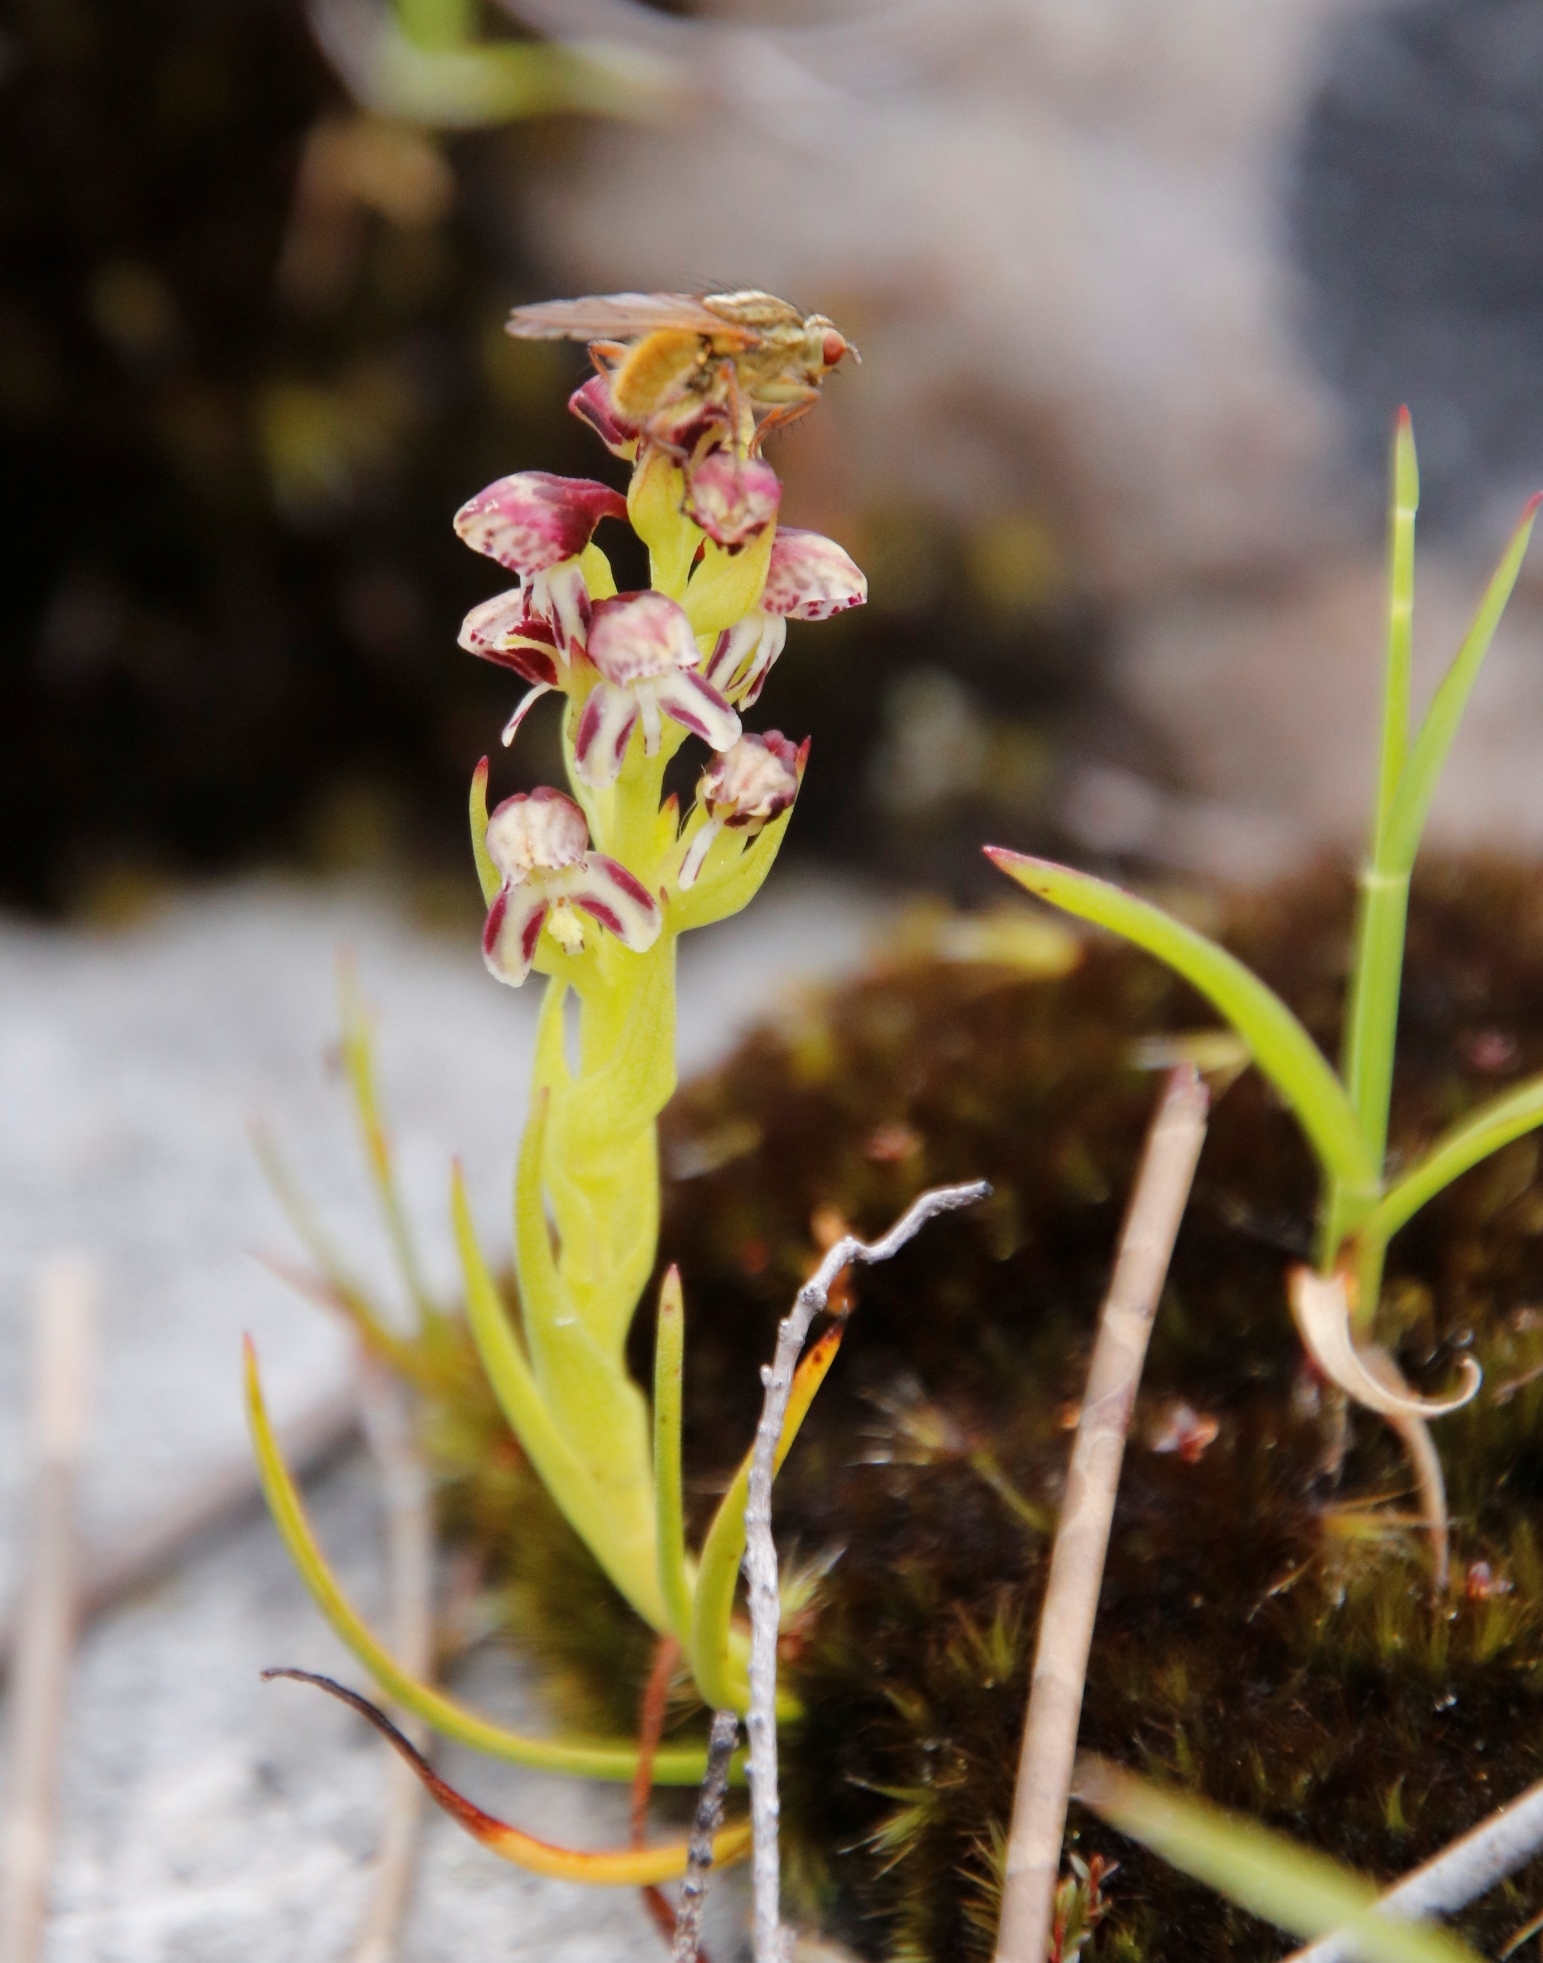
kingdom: Plantae
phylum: Tracheophyta
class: Liliopsida
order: Asparagales
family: Orchidaceae
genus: Disa
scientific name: Disa obtusa
